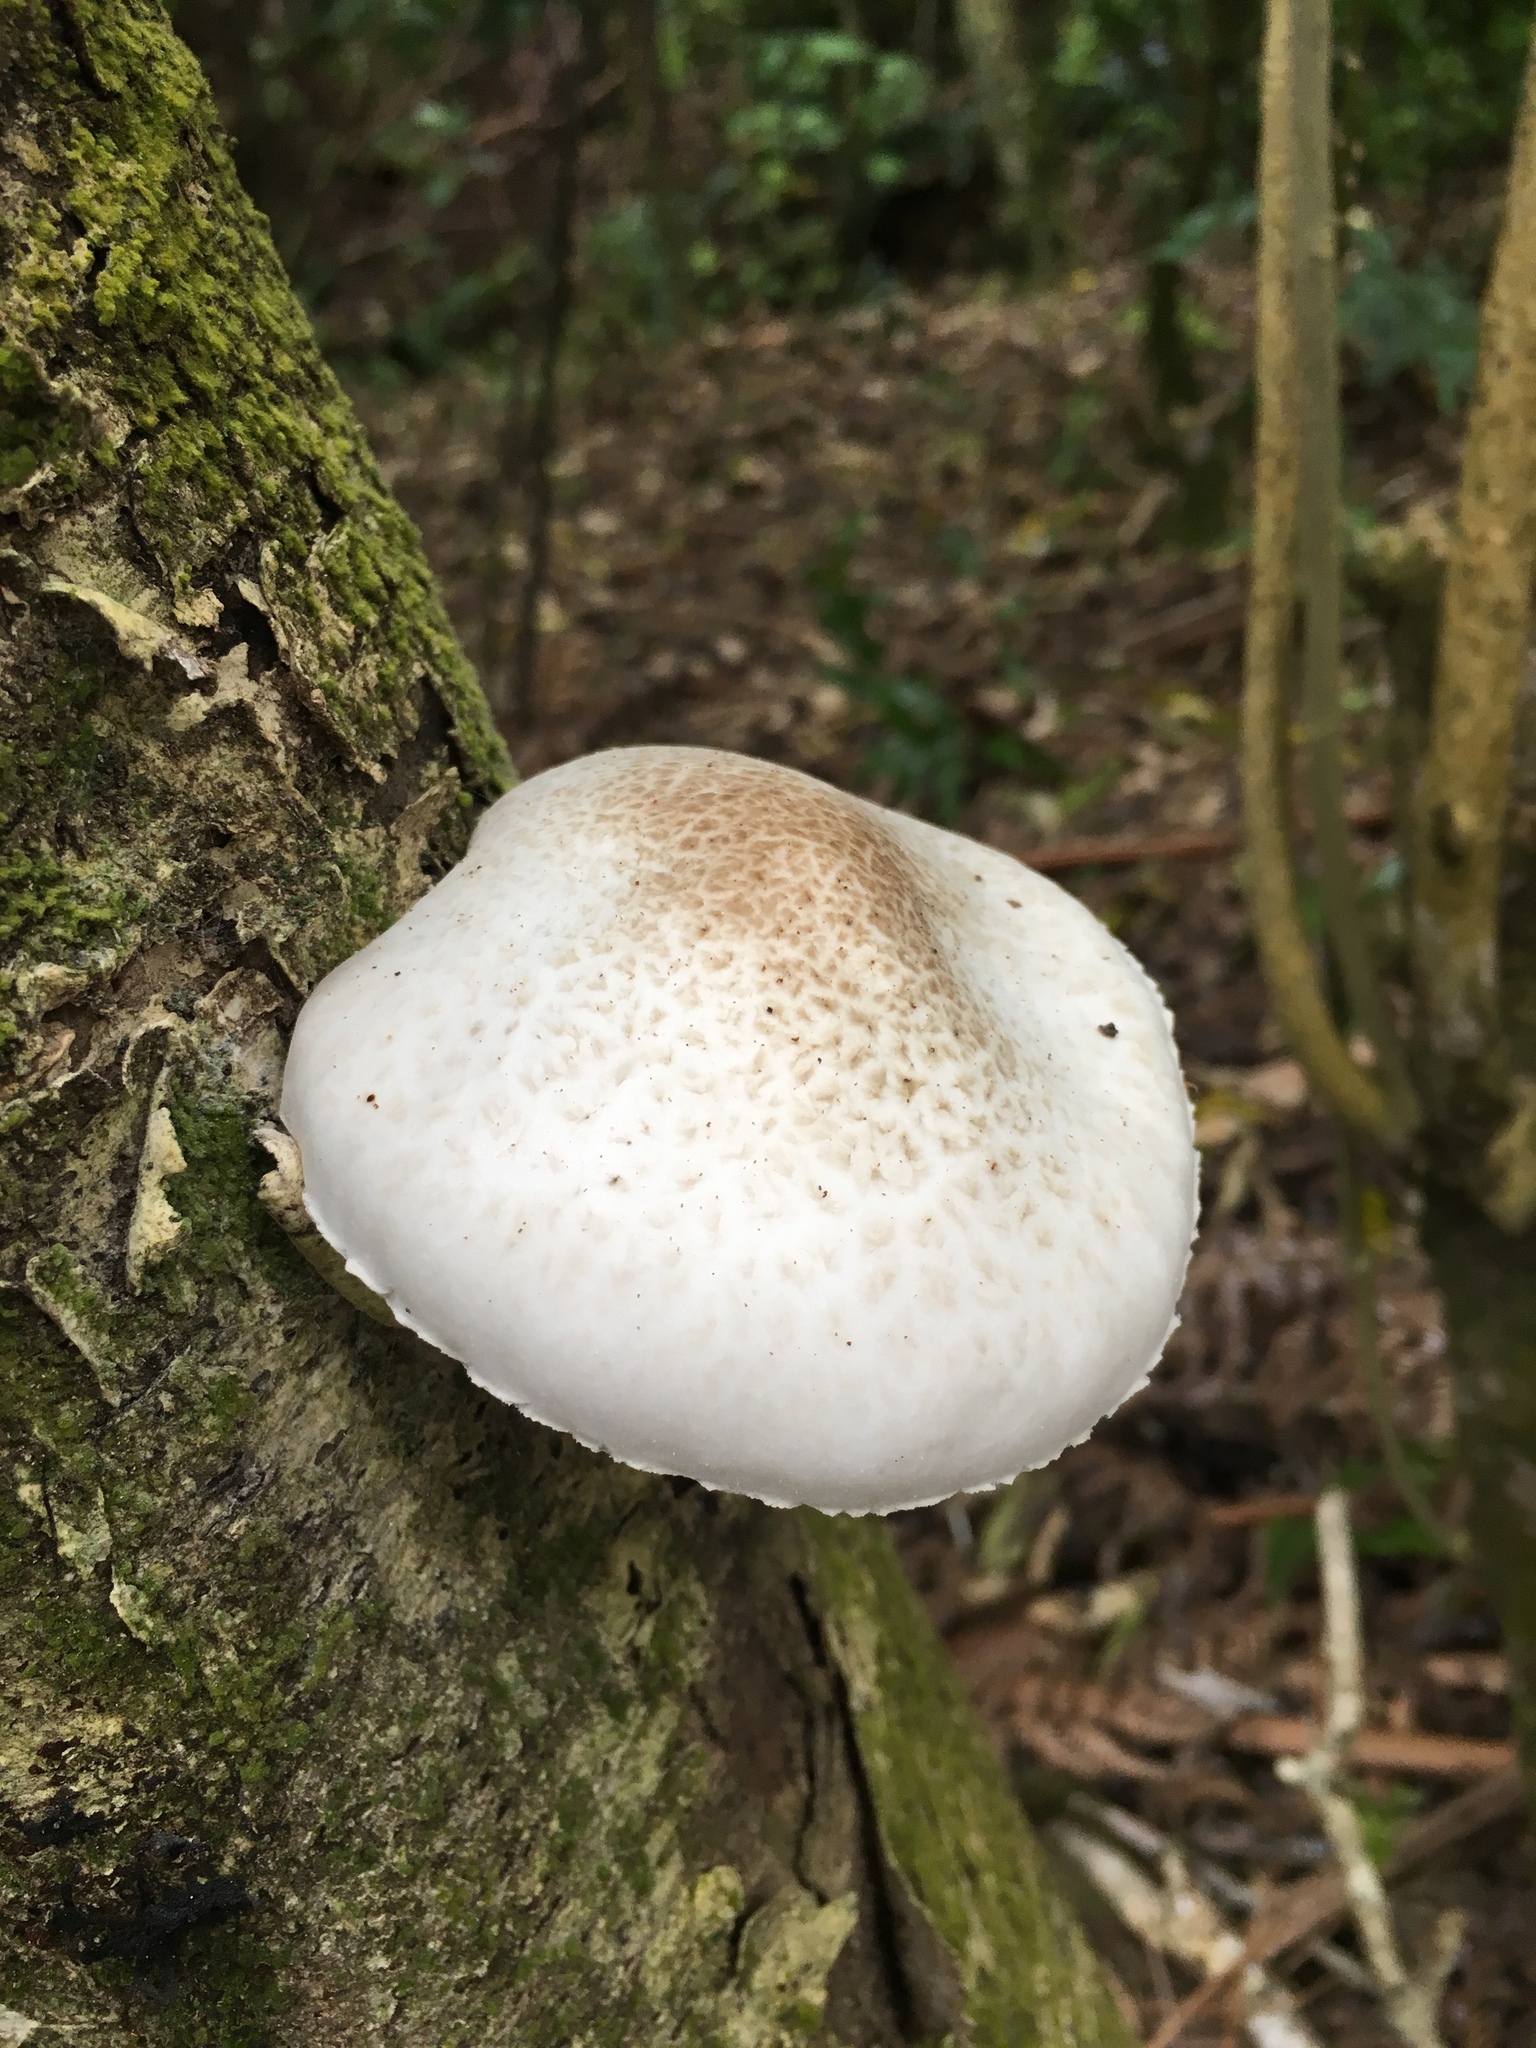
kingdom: Fungi
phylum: Basidiomycota
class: Agaricomycetes
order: Agaricales
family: Physalacriaceae
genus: Oudemansiella
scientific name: Oudemansiella australis
